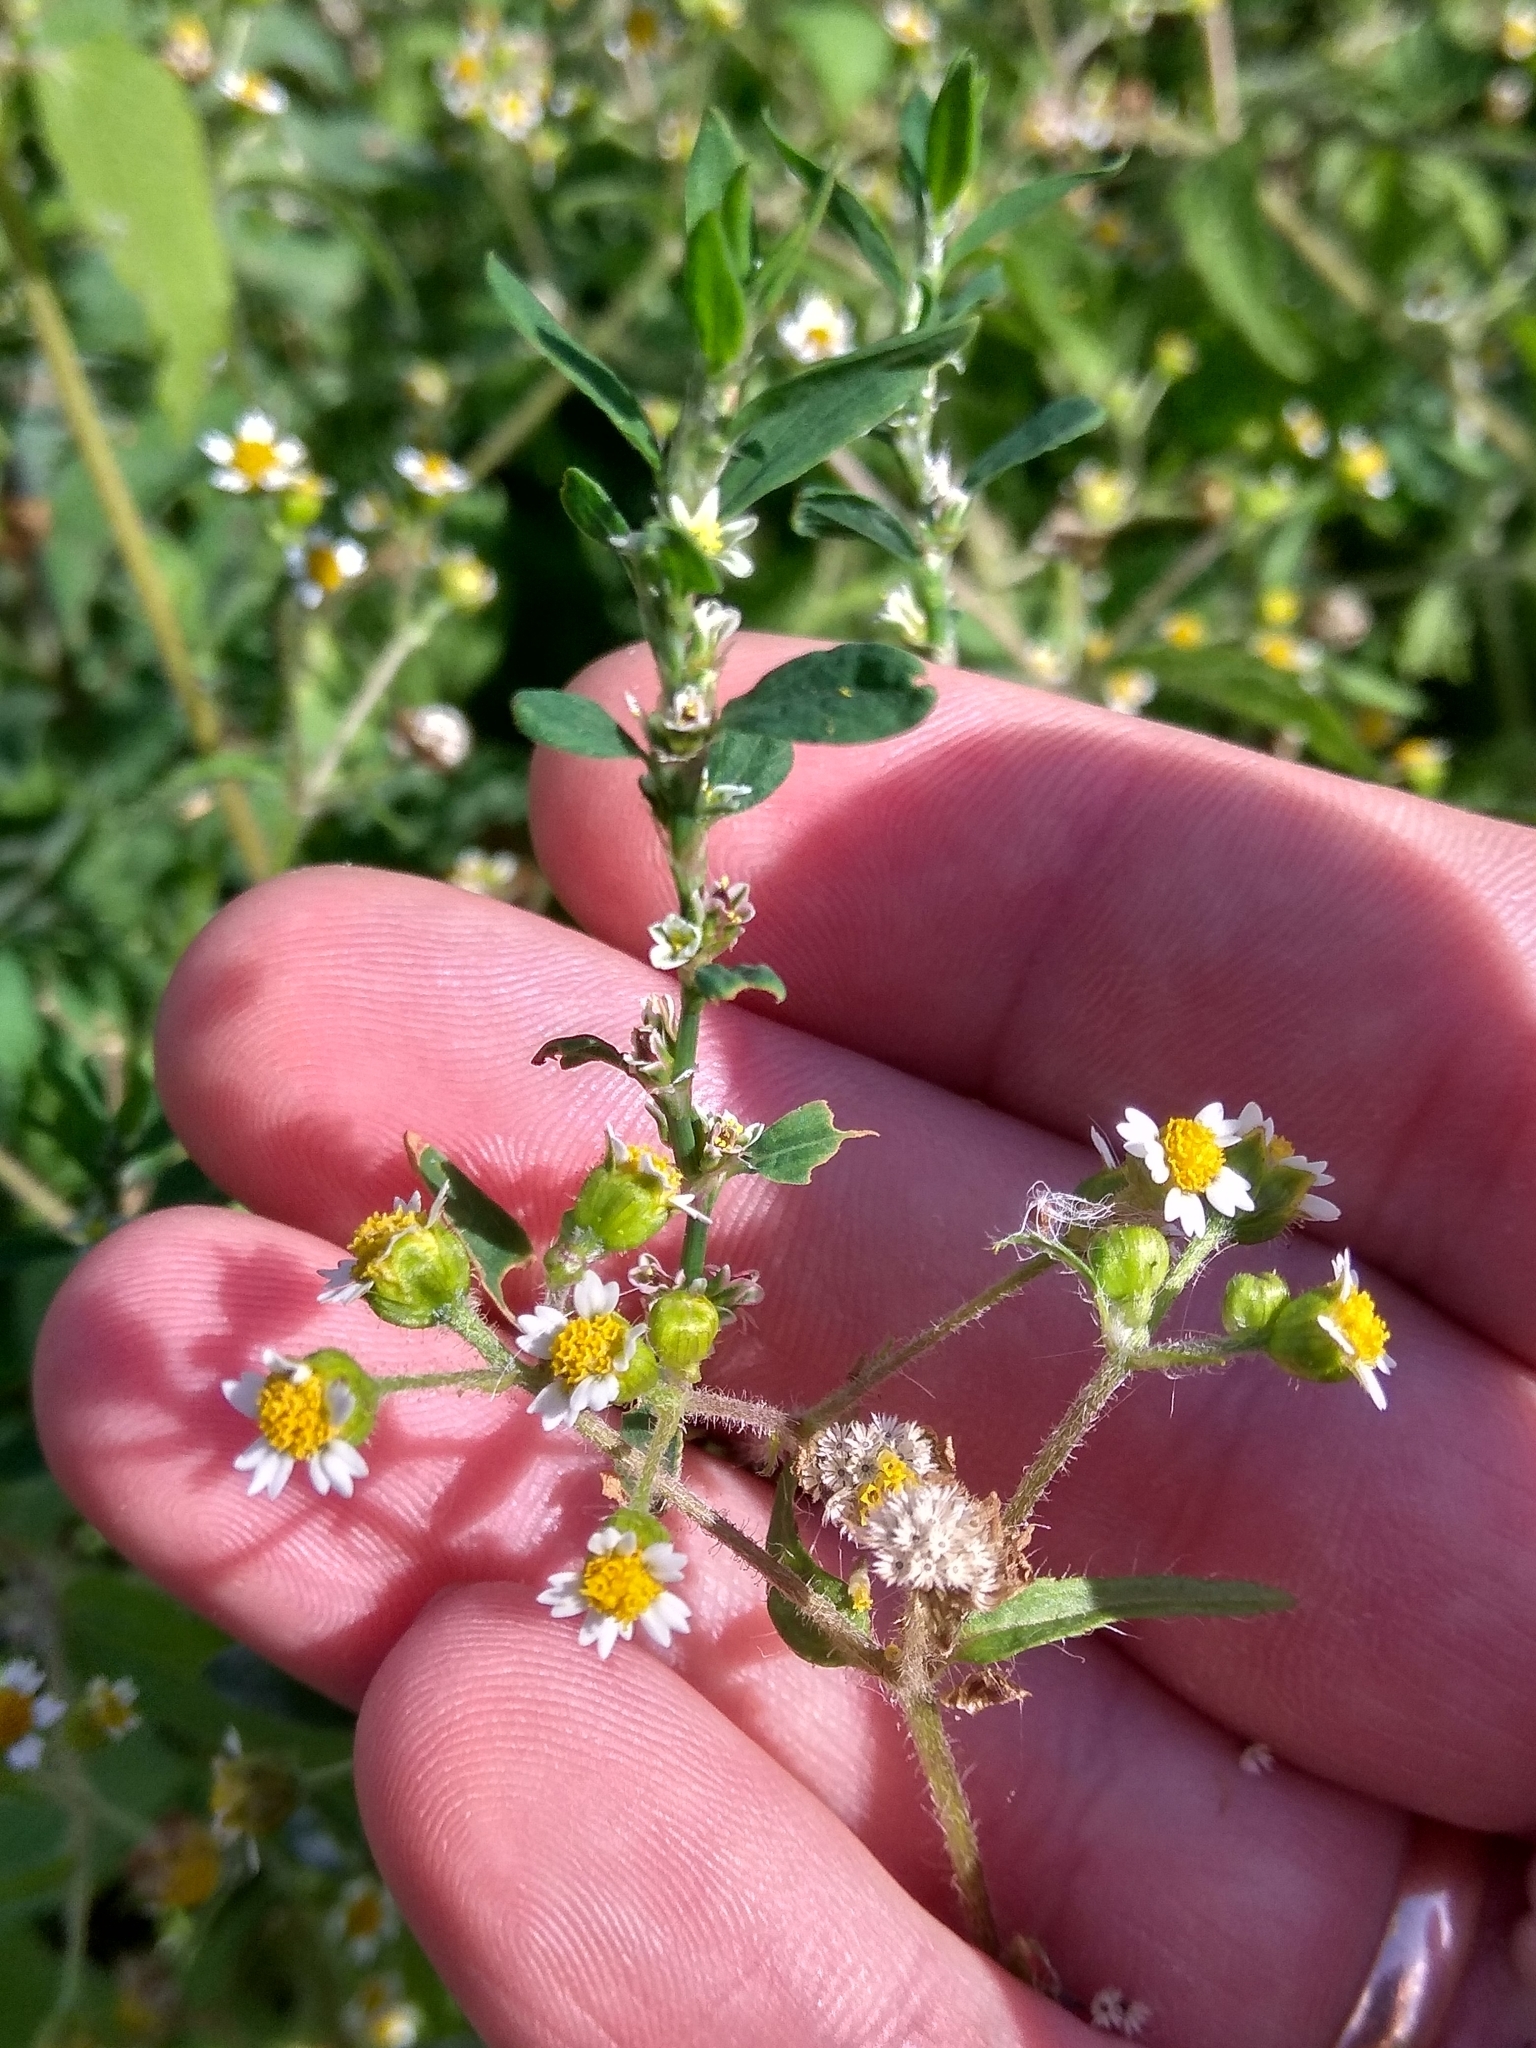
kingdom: Plantae
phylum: Tracheophyta
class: Magnoliopsida
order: Asterales
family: Asteraceae
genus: Galinsoga
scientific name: Galinsoga quadriradiata
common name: Shaggy soldier
